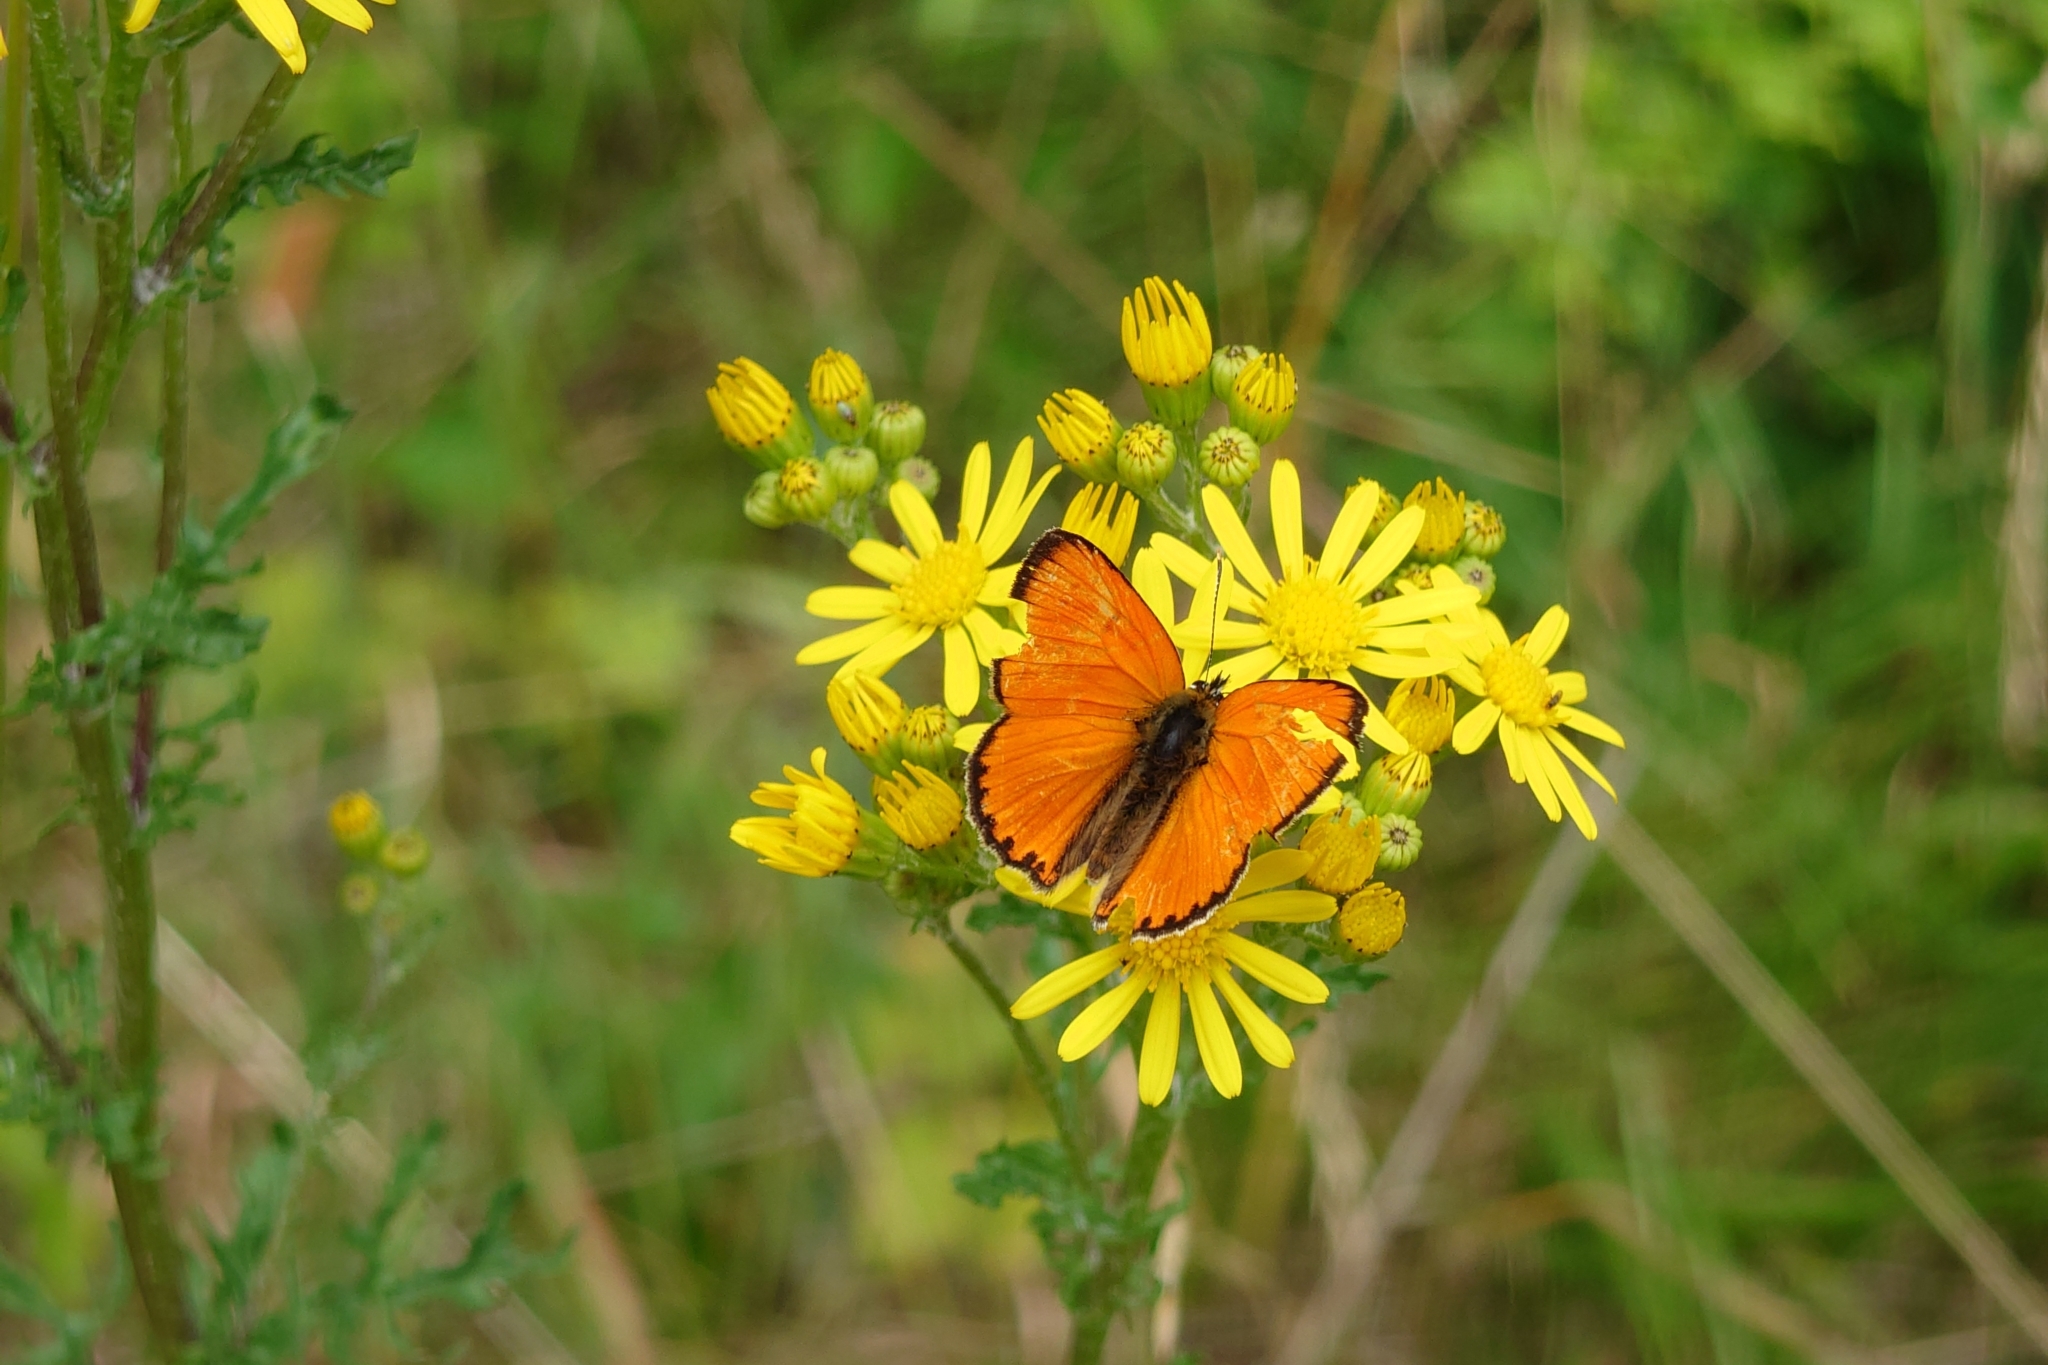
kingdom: Animalia
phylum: Arthropoda
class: Insecta
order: Lepidoptera
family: Lycaenidae
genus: Lycaena
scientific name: Lycaena virgaureae
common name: Scarce copper
